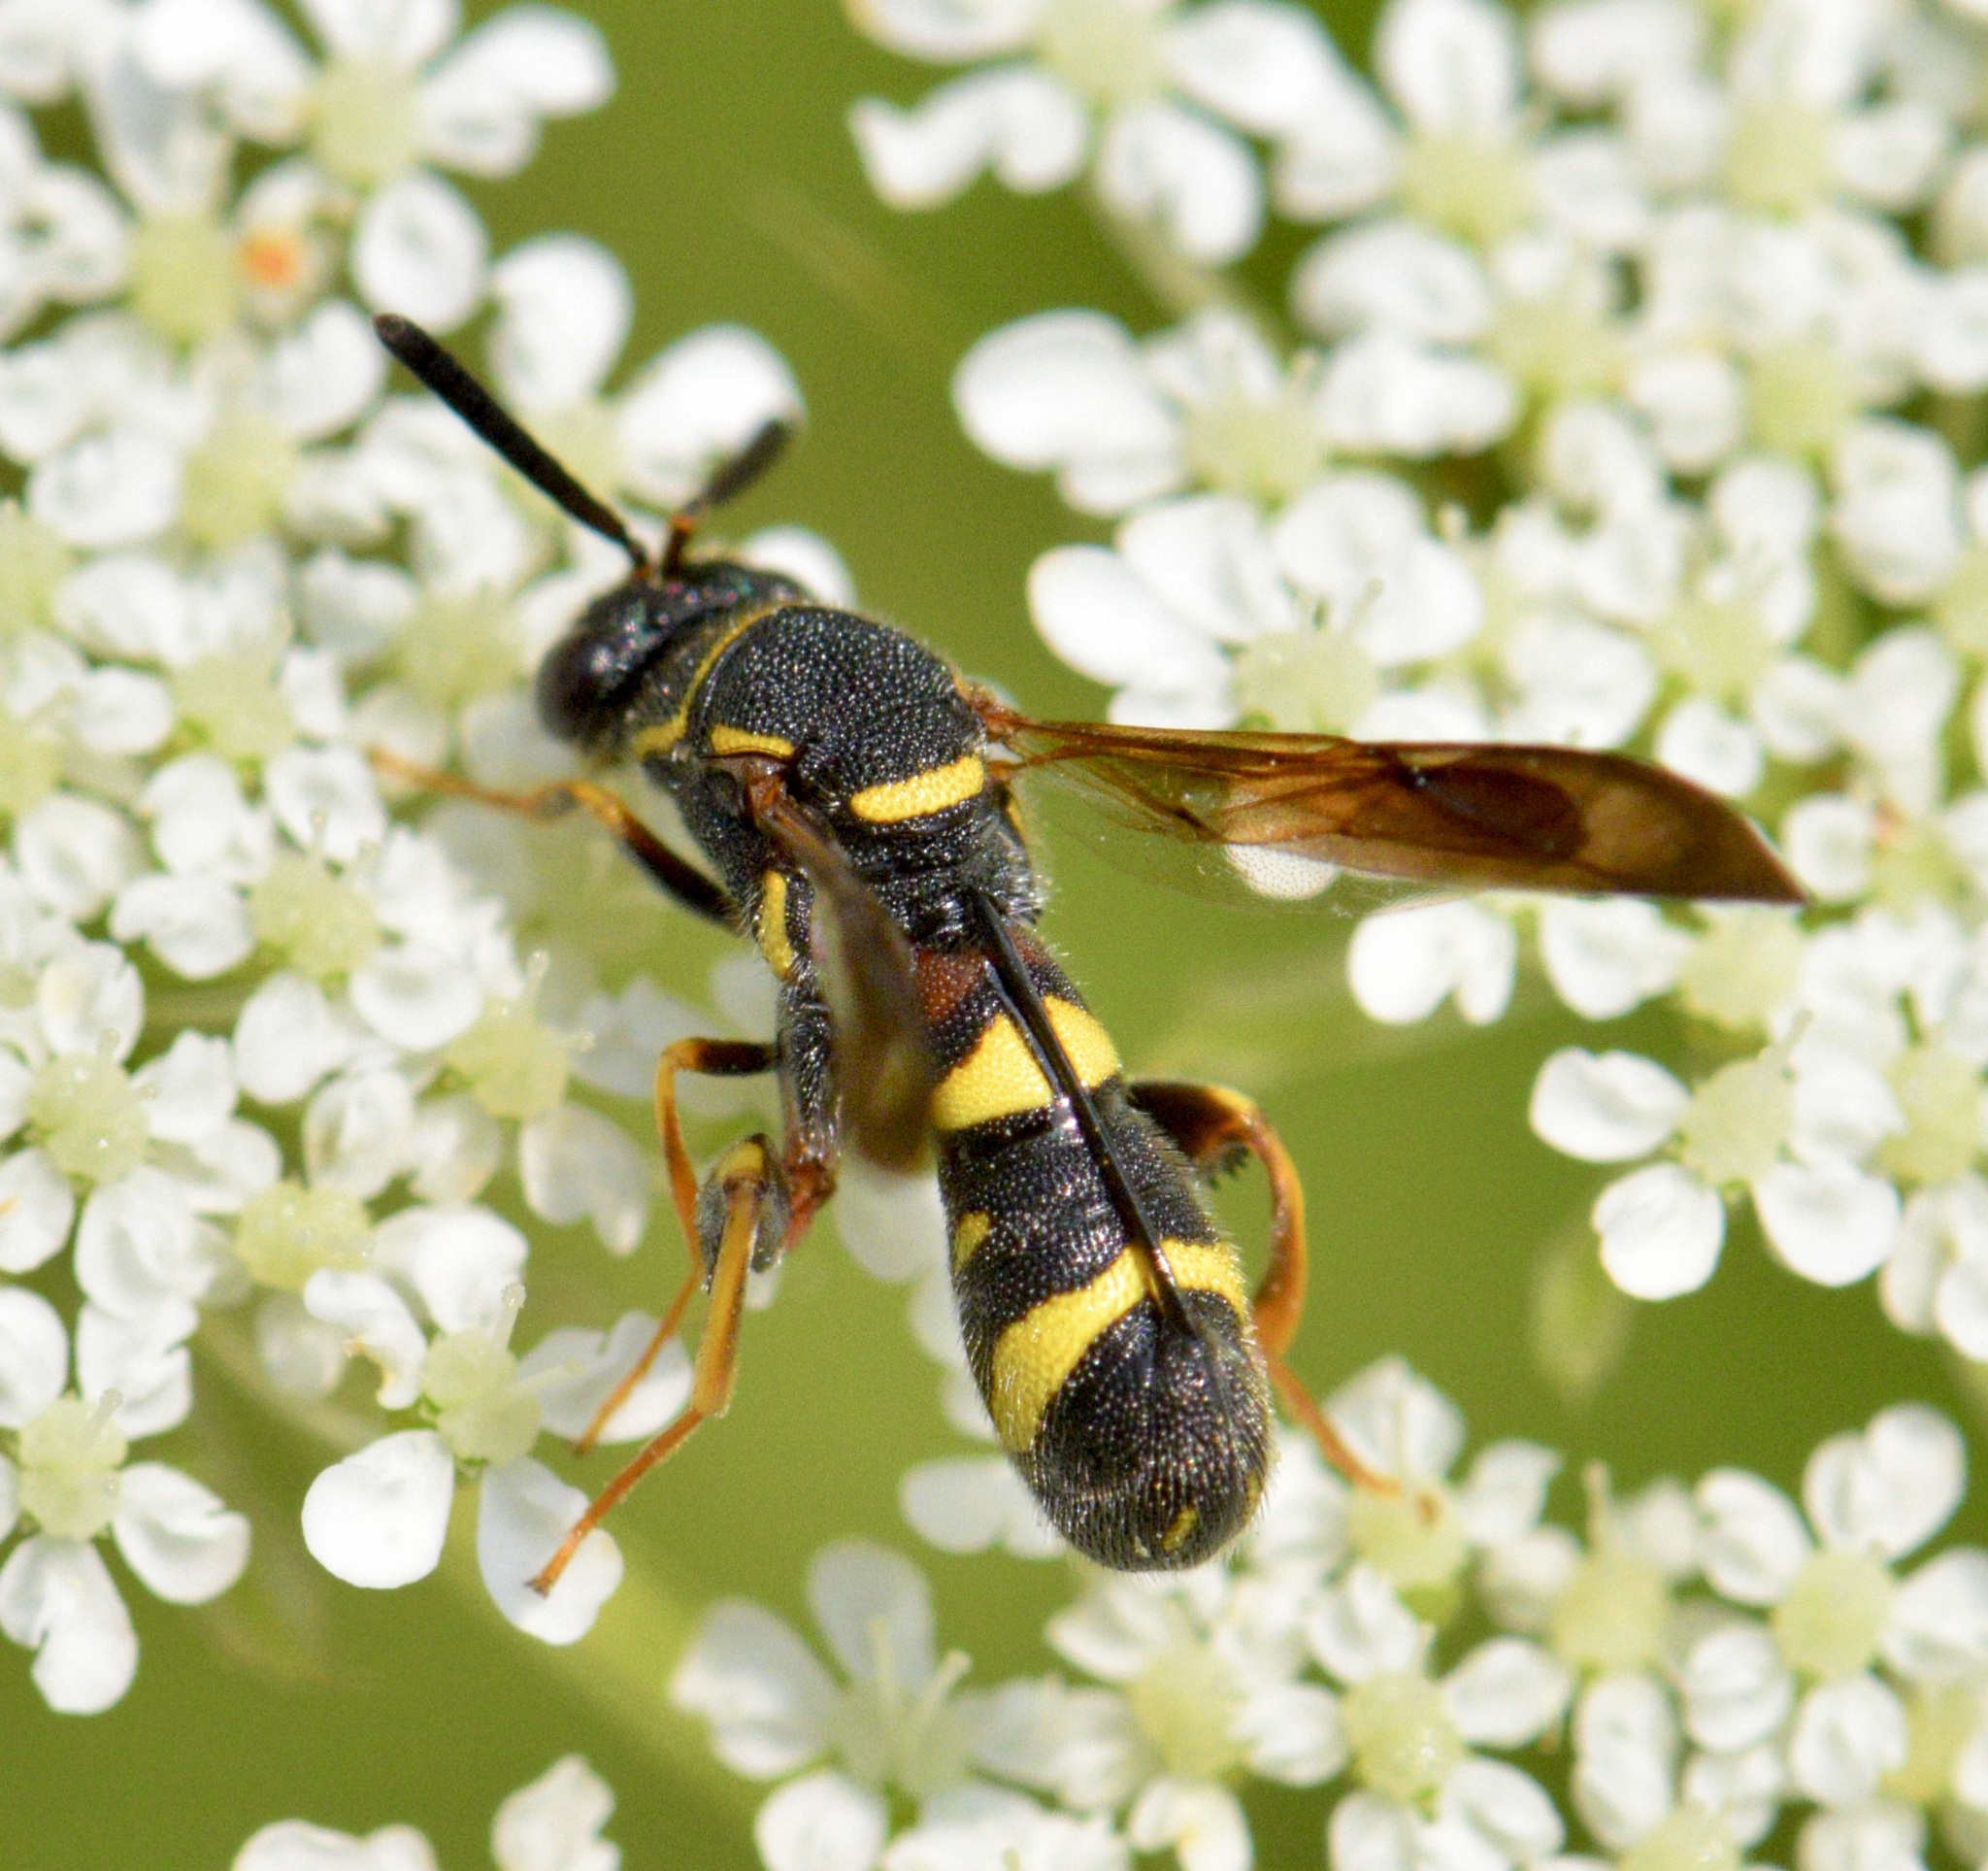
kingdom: Animalia
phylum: Arthropoda
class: Insecta
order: Hymenoptera
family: Leucospidae
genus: Leucospis
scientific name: Leucospis affinis
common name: Wasp
